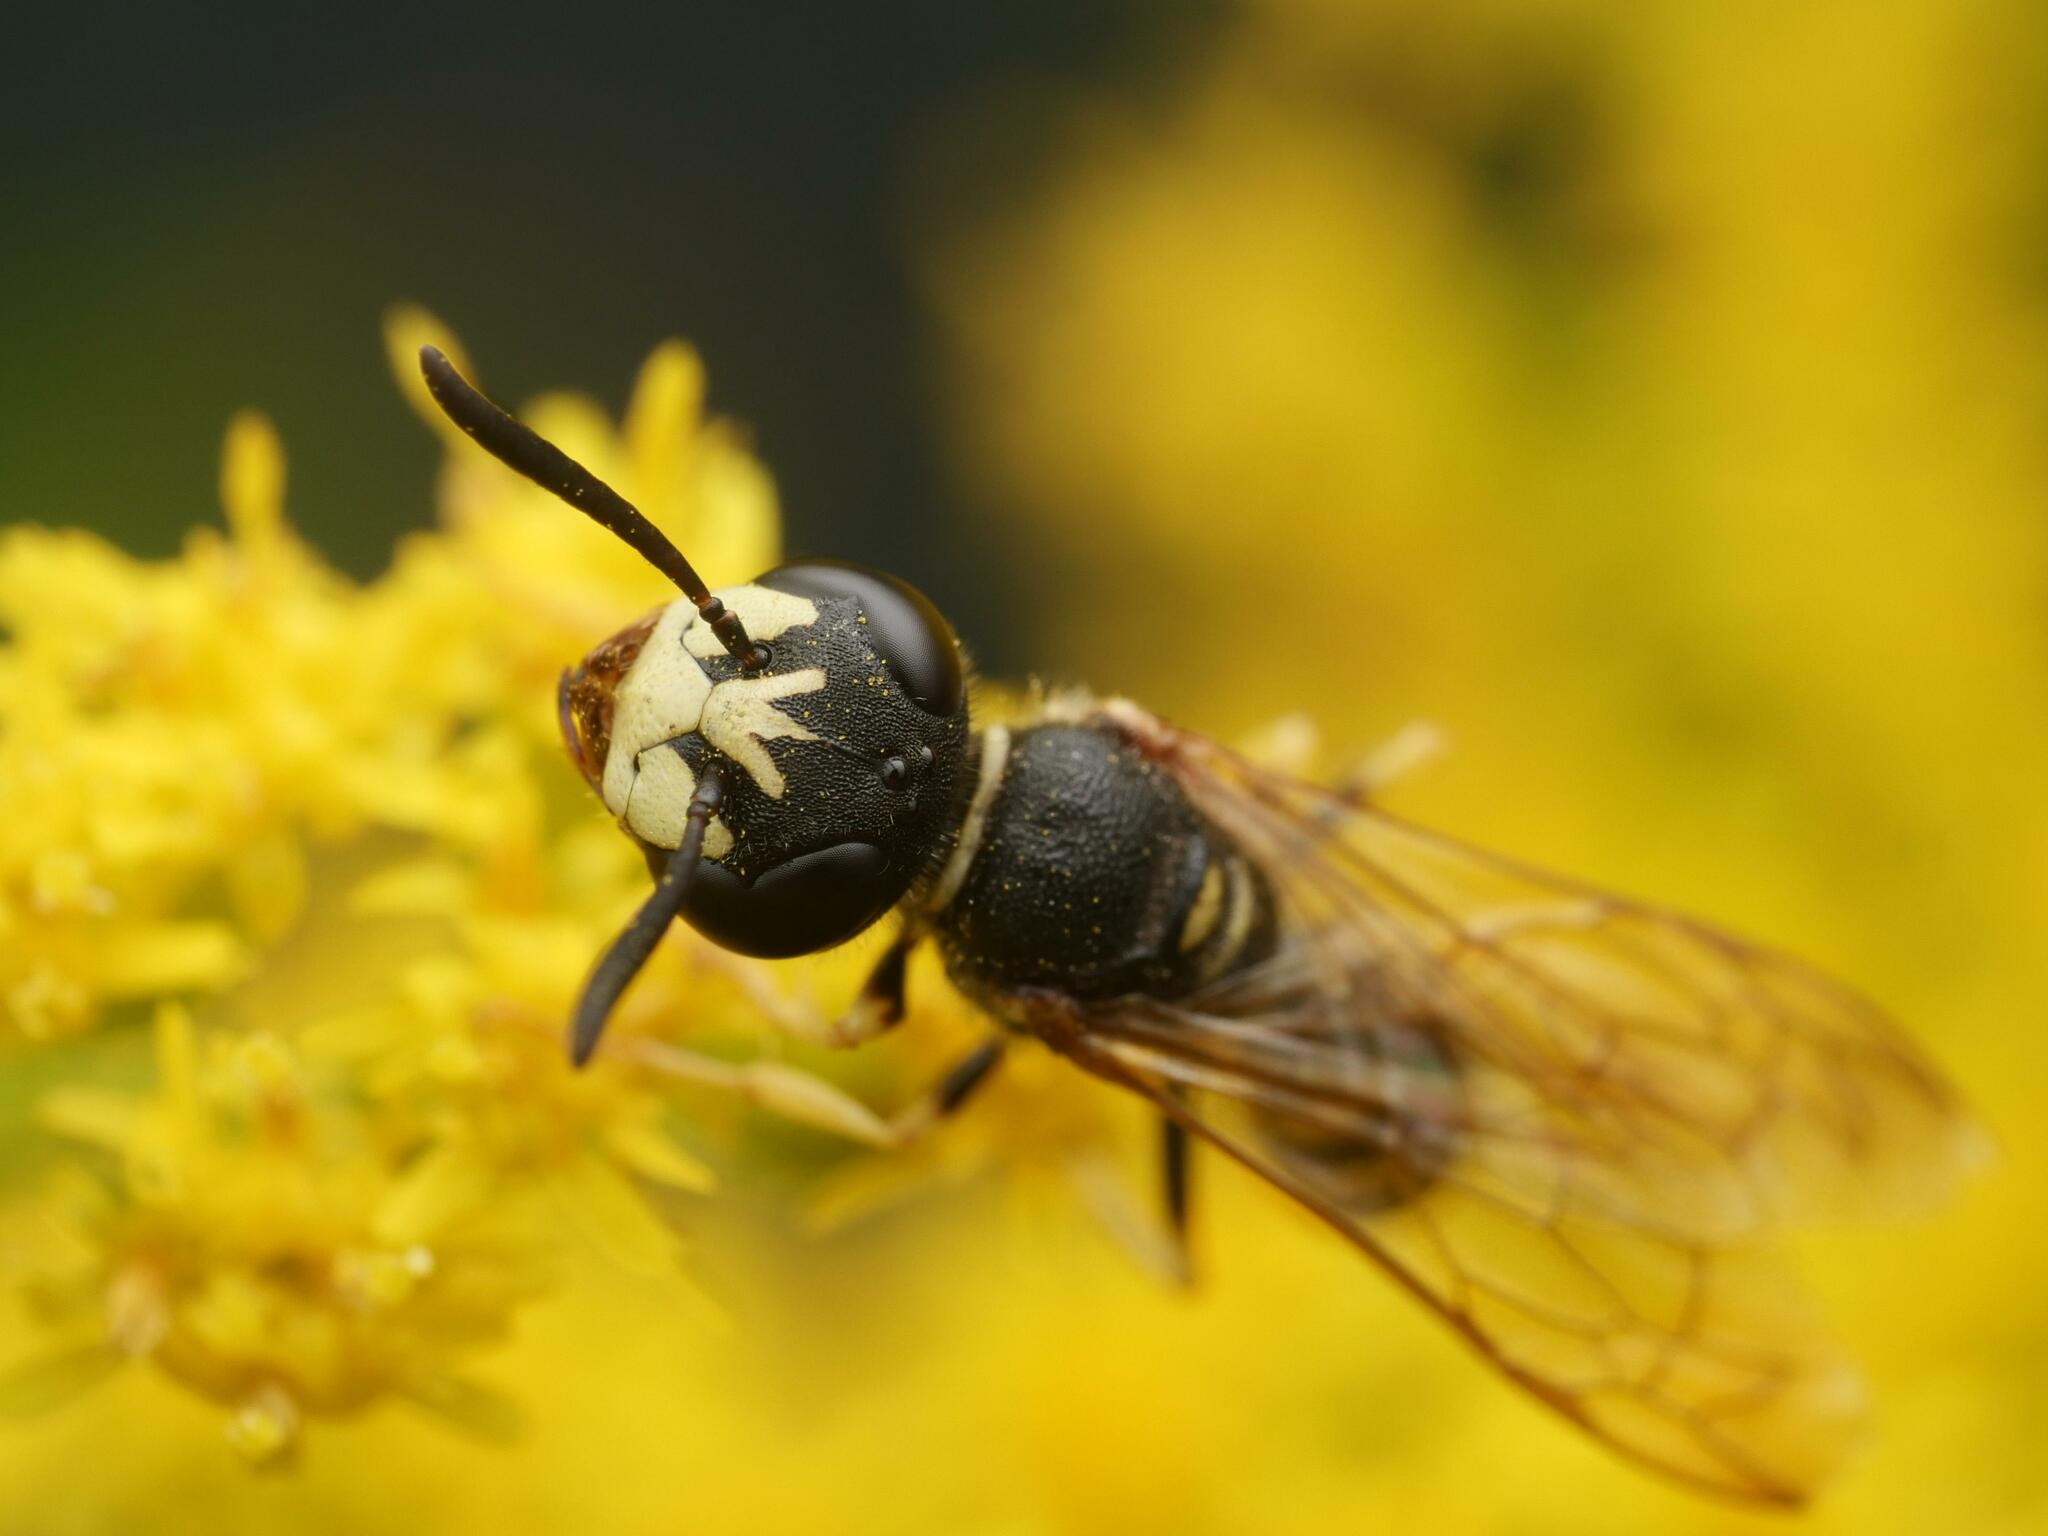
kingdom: Animalia
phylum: Arthropoda
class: Insecta
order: Hymenoptera
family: Crabronidae
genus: Philanthus
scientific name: Philanthus triangulum
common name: Bee wolf
